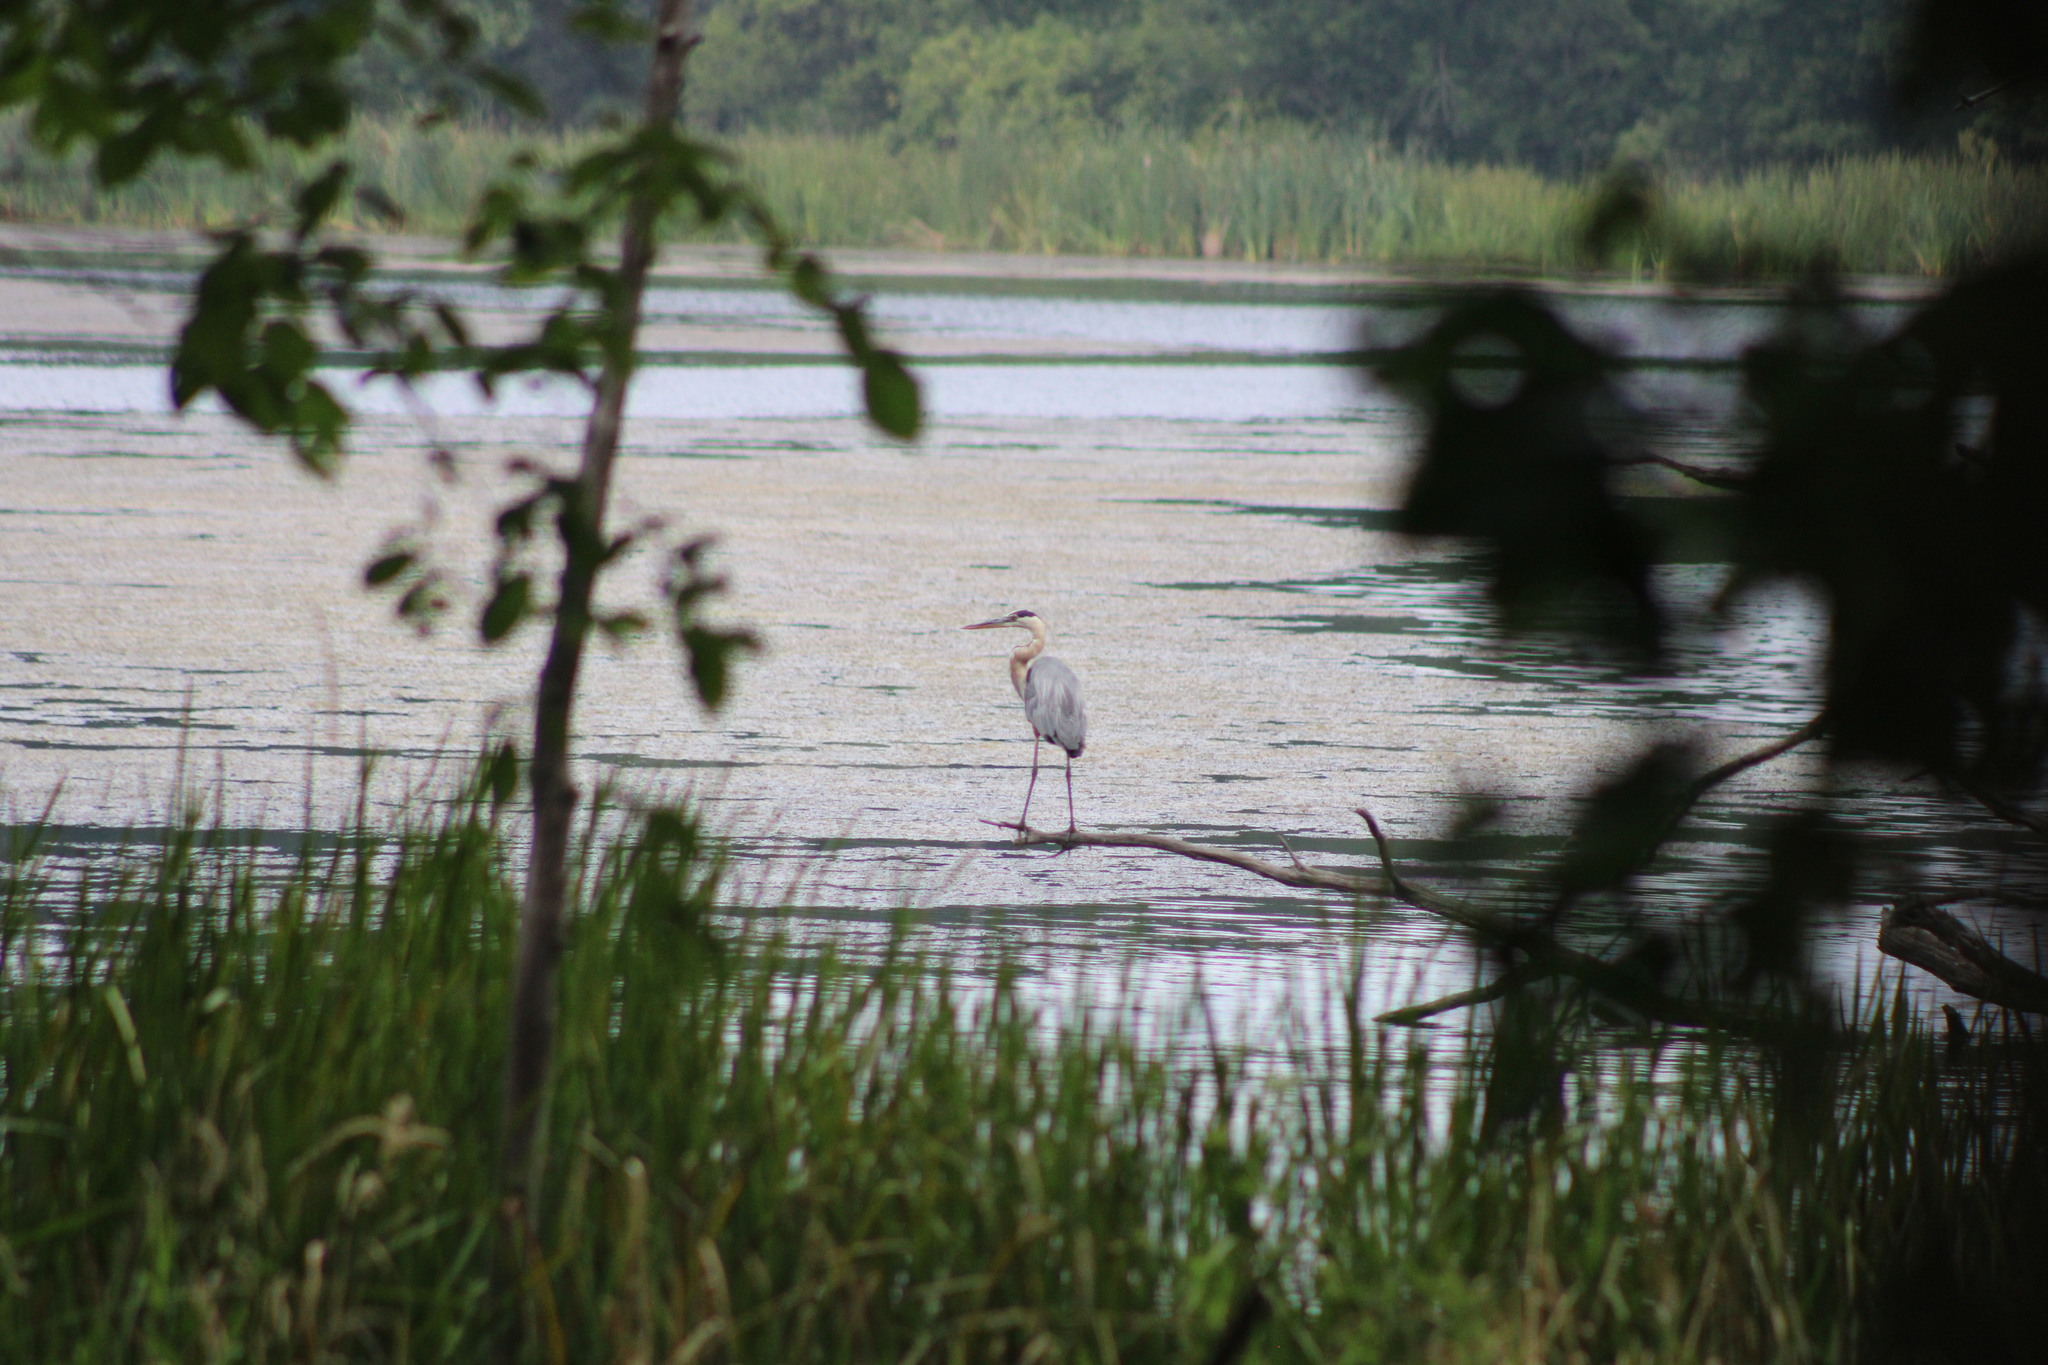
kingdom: Animalia
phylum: Chordata
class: Aves
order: Pelecaniformes
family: Ardeidae
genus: Ardea
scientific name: Ardea herodias
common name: Great blue heron
